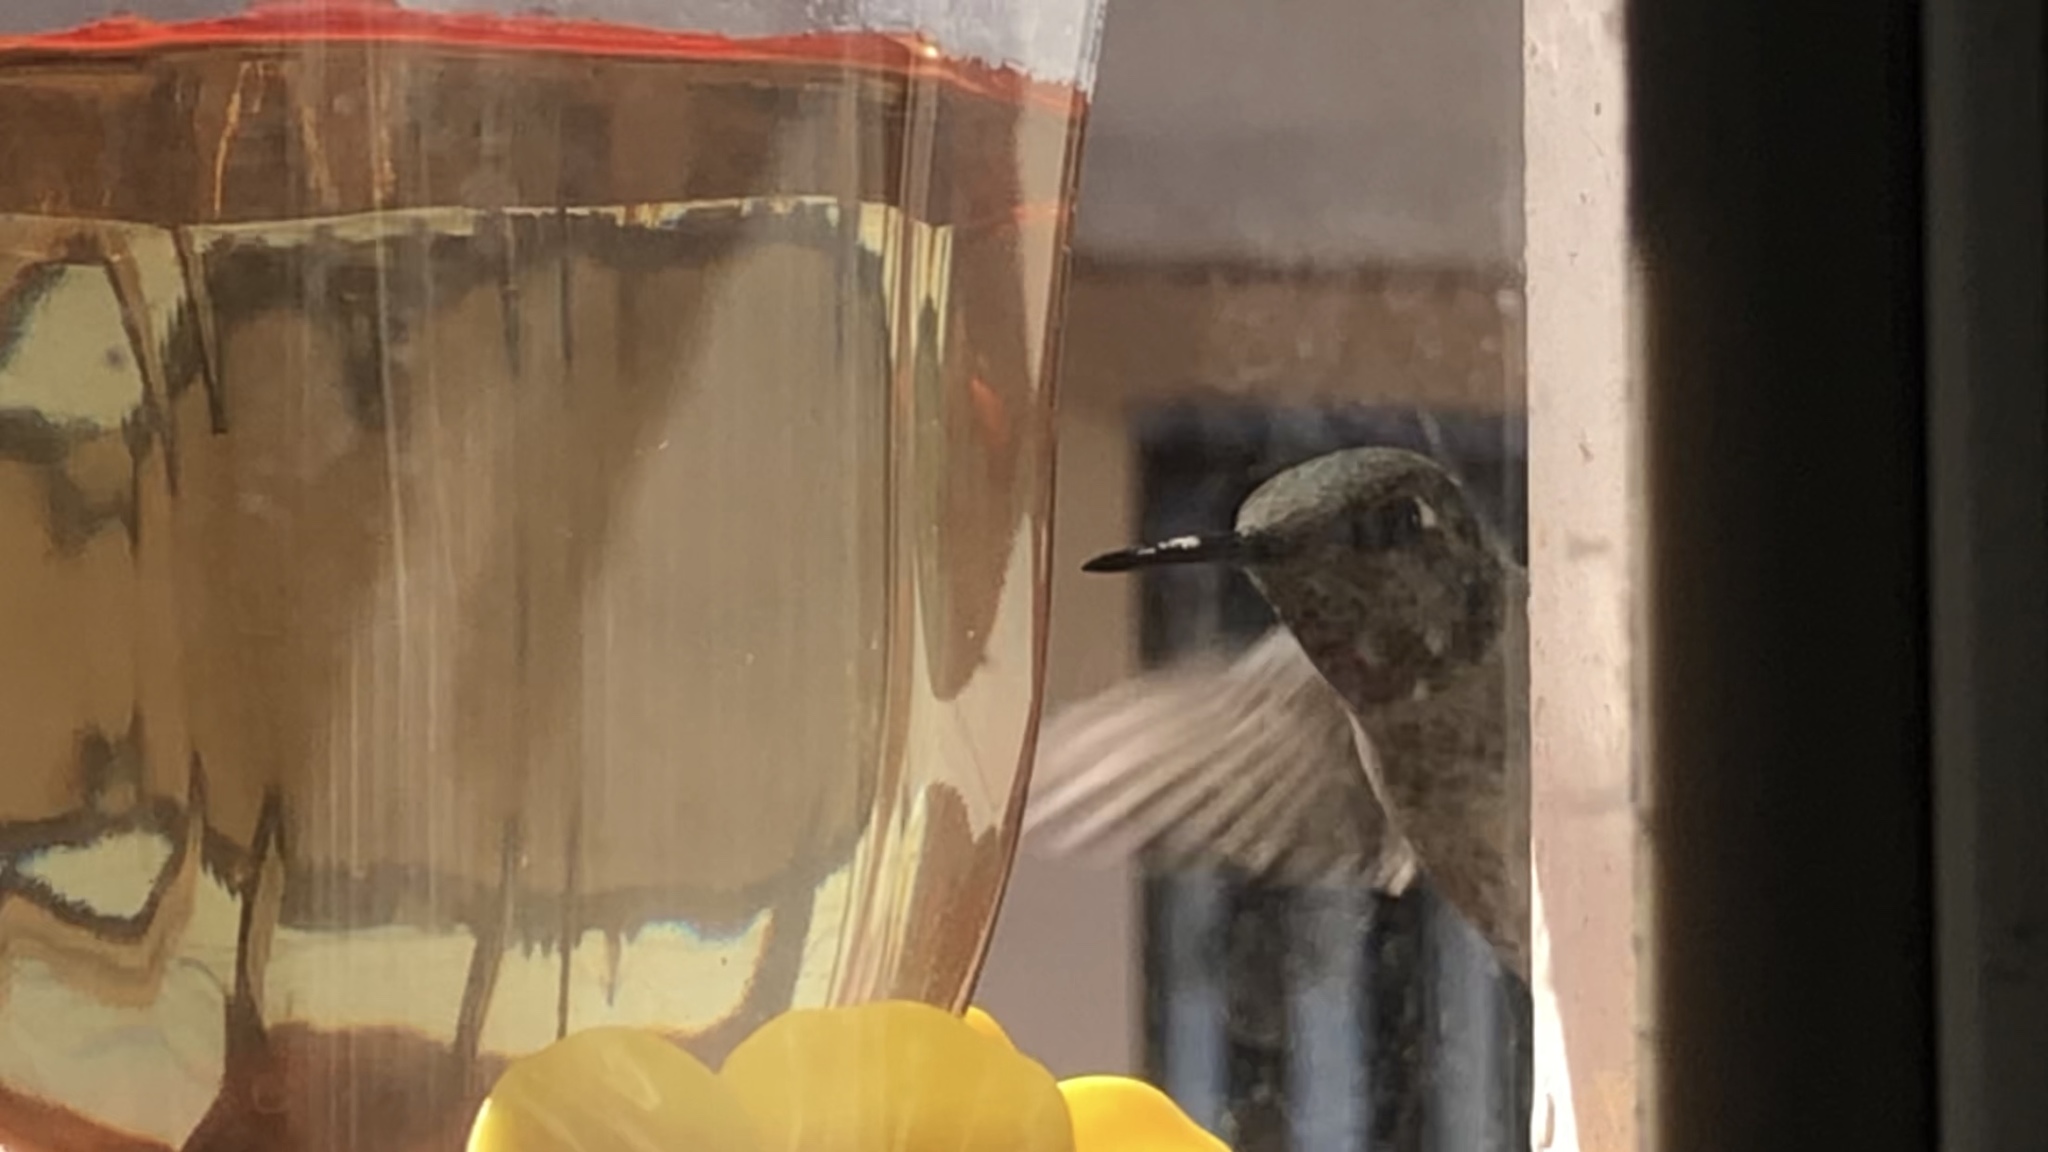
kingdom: Animalia
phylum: Chordata
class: Aves
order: Apodiformes
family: Trochilidae
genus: Calypte
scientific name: Calypte anna
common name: Anna's hummingbird
